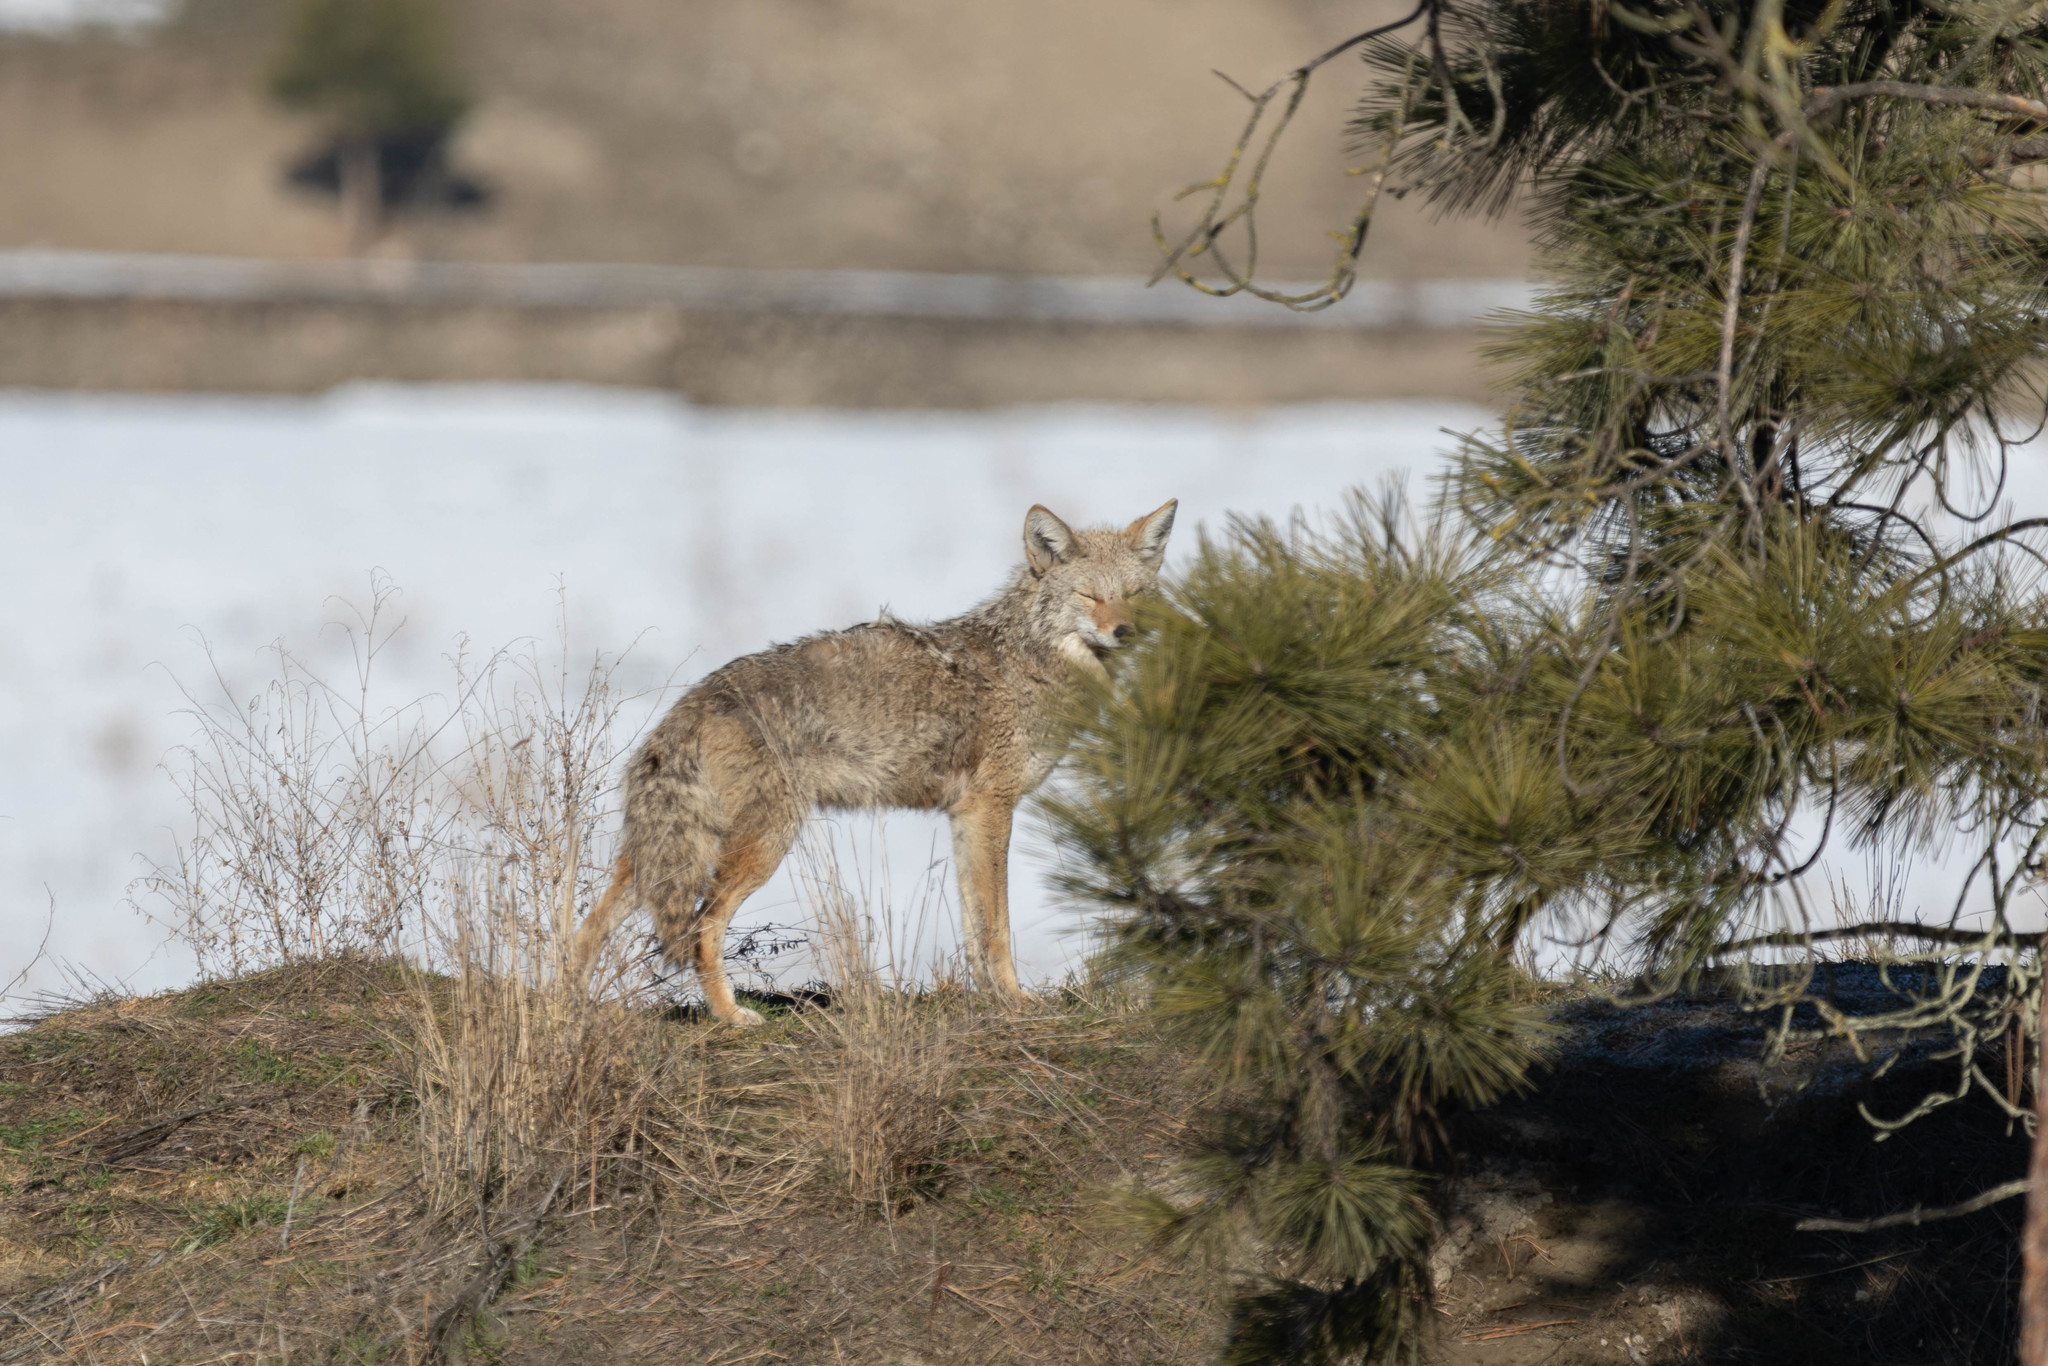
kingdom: Animalia
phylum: Chordata
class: Mammalia
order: Carnivora
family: Canidae
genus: Canis
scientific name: Canis latrans
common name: Coyote
